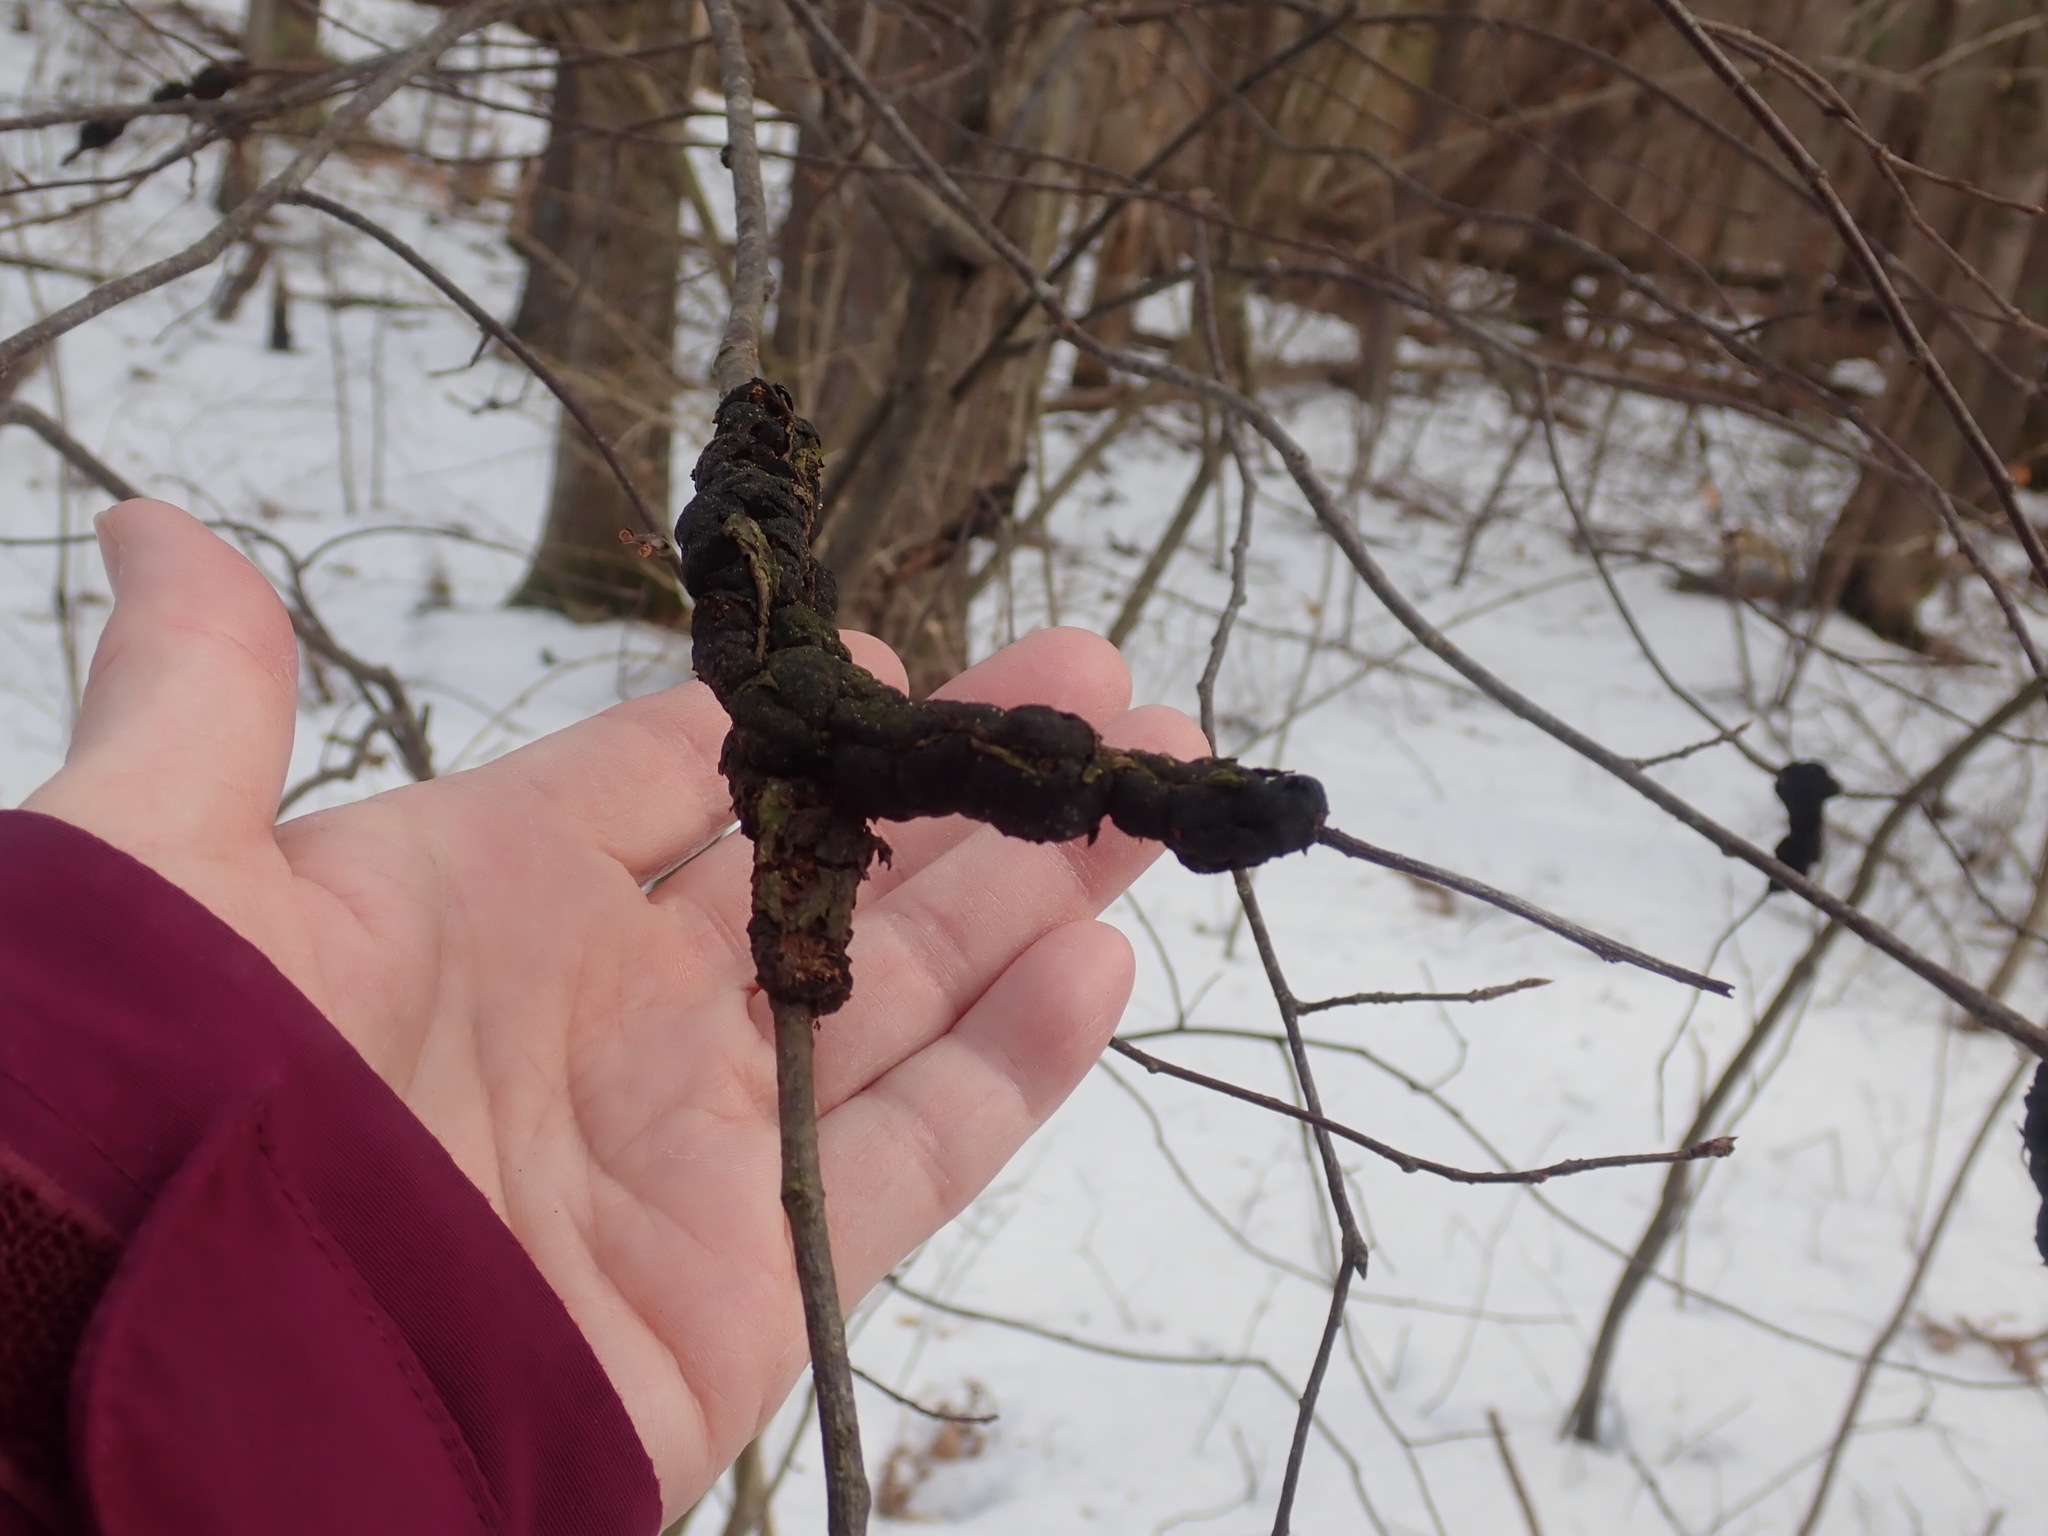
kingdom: Fungi
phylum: Ascomycota
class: Dothideomycetes
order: Venturiales
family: Venturiaceae
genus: Apiosporina
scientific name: Apiosporina morbosa
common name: Black knot
